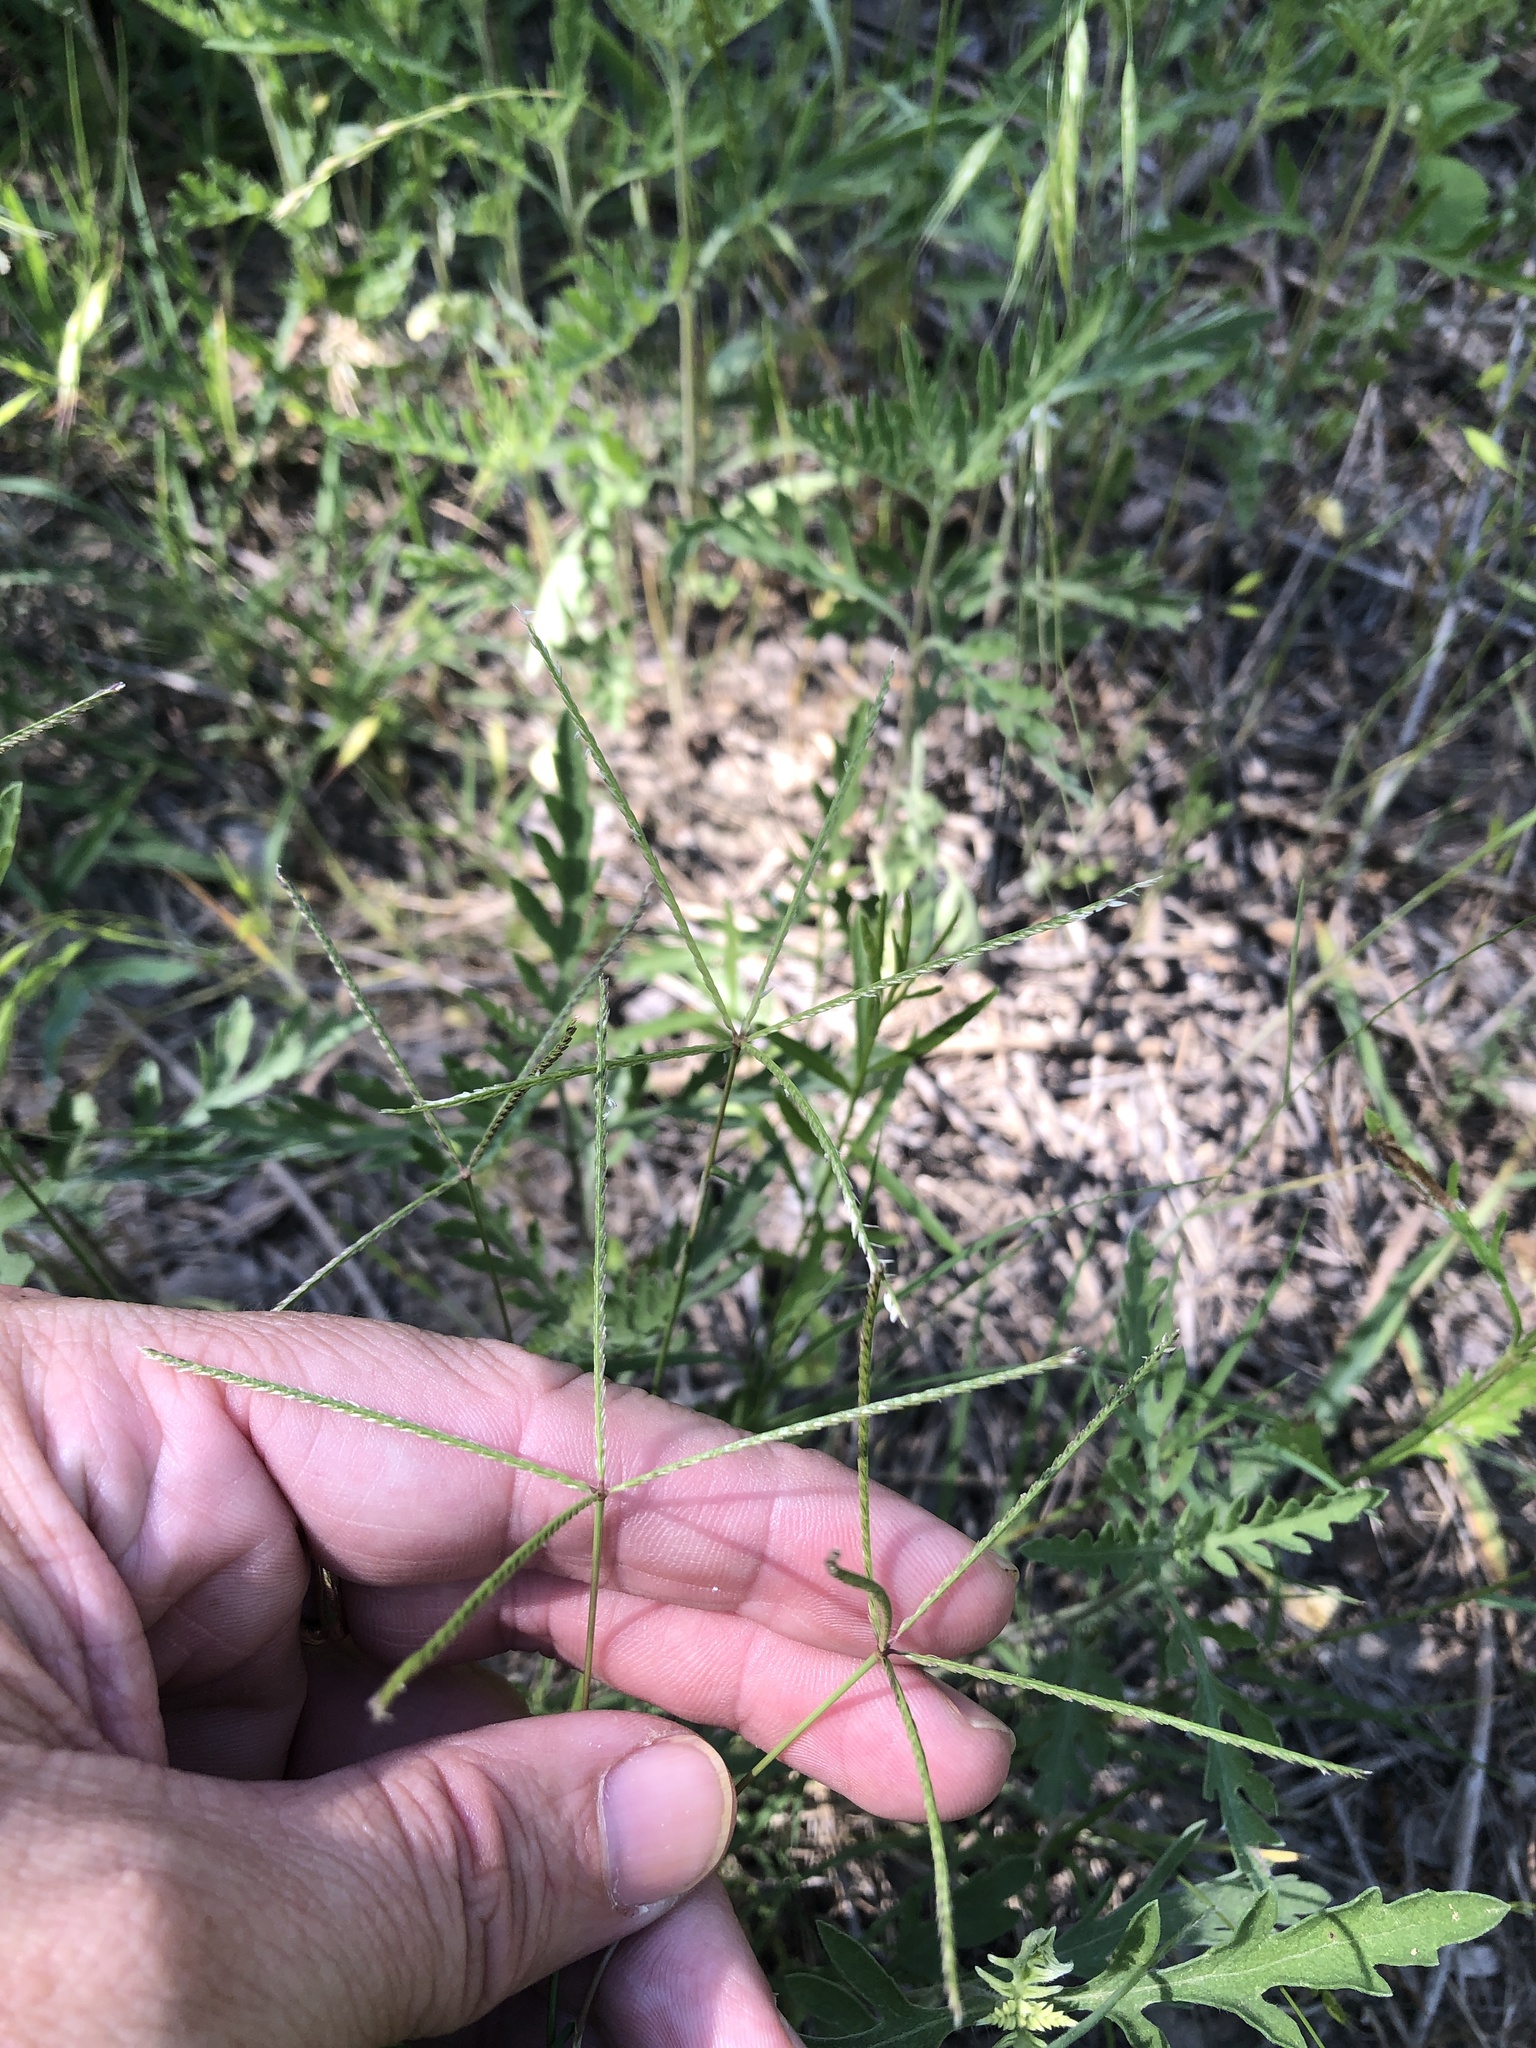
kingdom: Plantae
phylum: Tracheophyta
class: Liliopsida
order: Poales
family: Poaceae
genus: Cynodon
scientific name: Cynodon dactylon
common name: Bermuda grass
